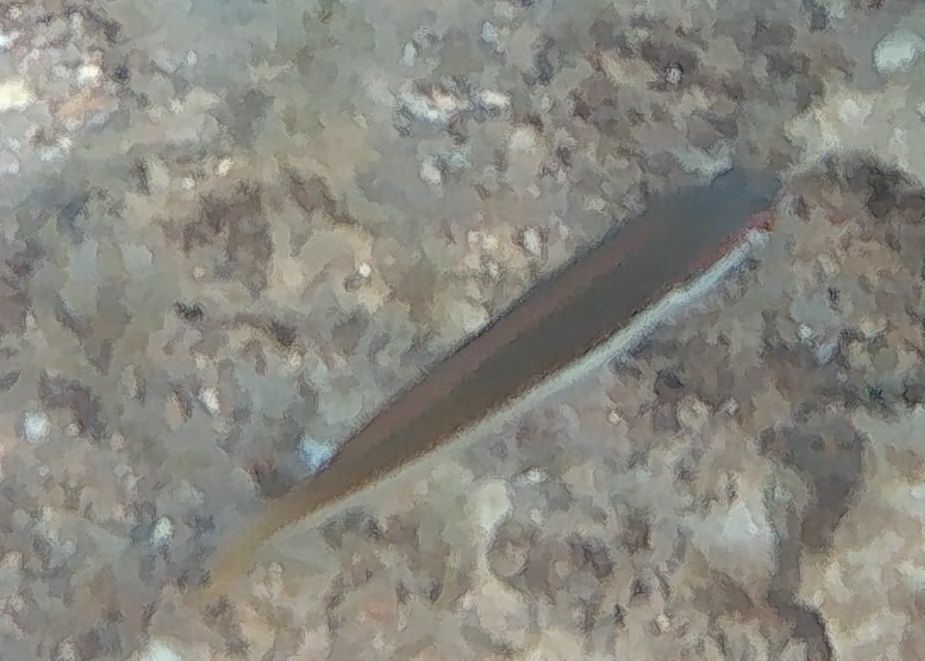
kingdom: Animalia
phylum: Chordata
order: Perciformes
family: Labridae
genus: Coris
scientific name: Coris julis
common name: Rainbow wrasse
